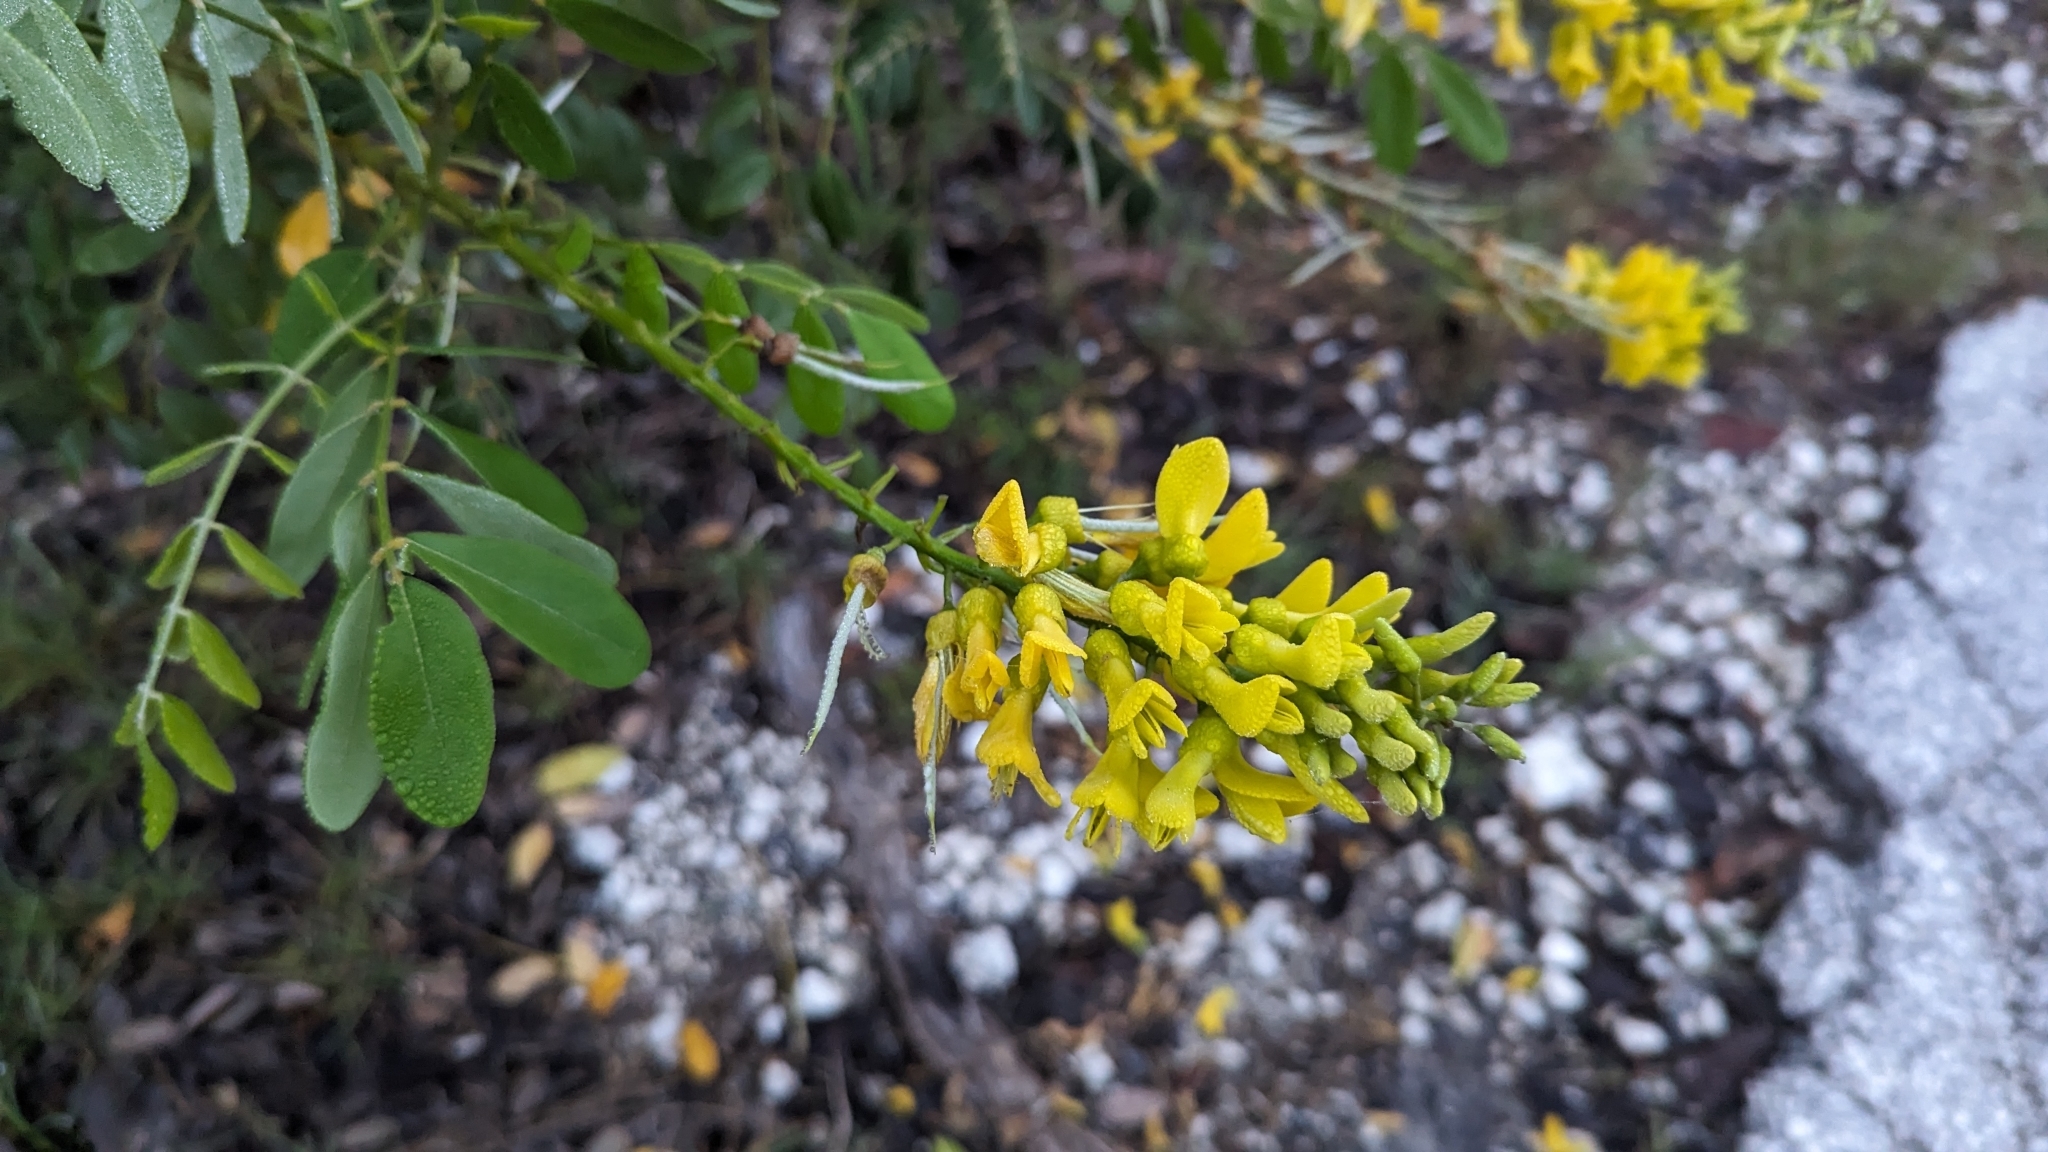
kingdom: Plantae
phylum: Tracheophyta
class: Magnoliopsida
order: Fabales
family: Fabaceae
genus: Sophora
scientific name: Sophora tomentosa
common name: Yellow necklacepod
